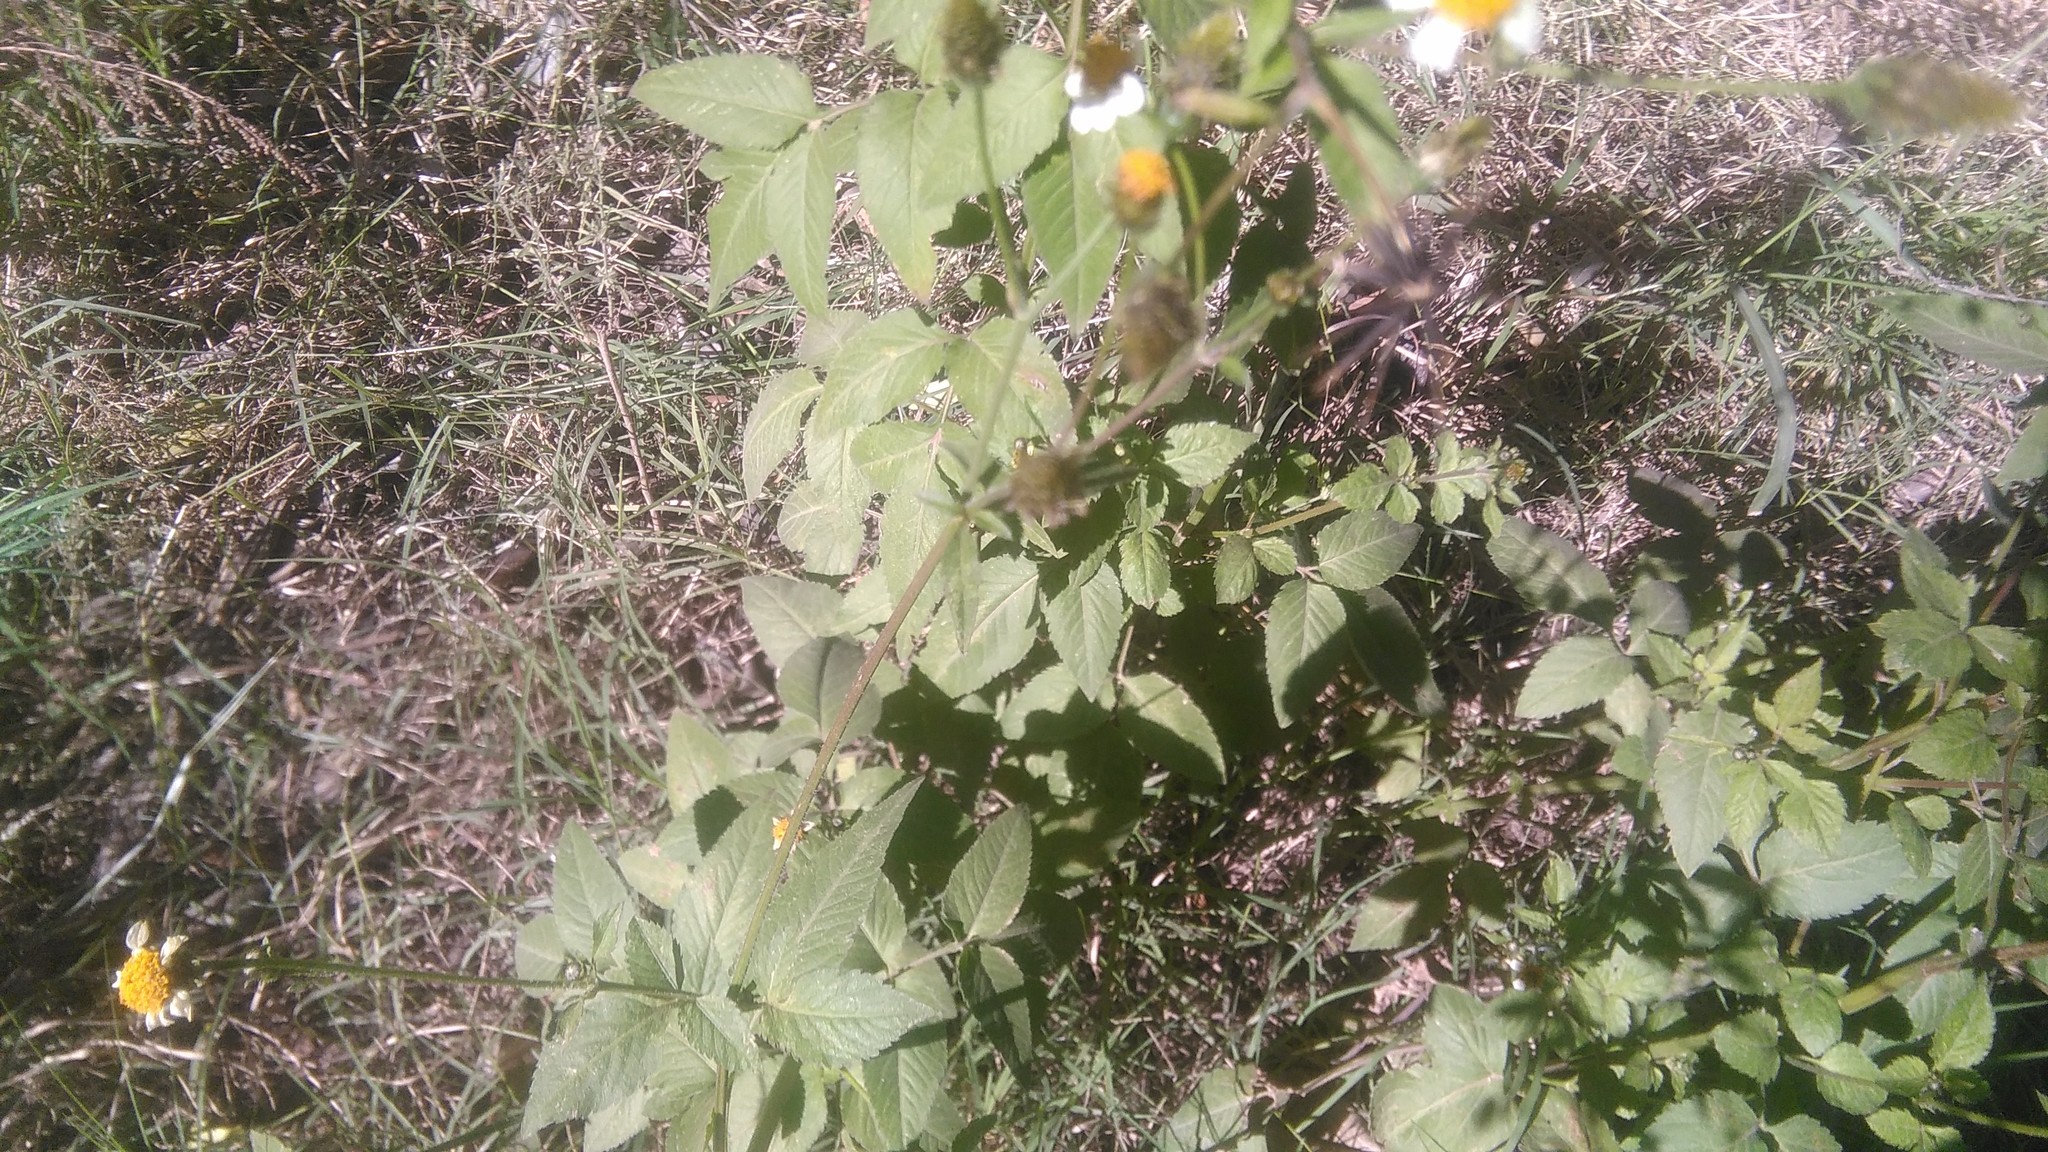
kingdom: Plantae
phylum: Tracheophyta
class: Magnoliopsida
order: Asterales
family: Asteraceae
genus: Bidens
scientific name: Bidens pilosa
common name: Black-jack
